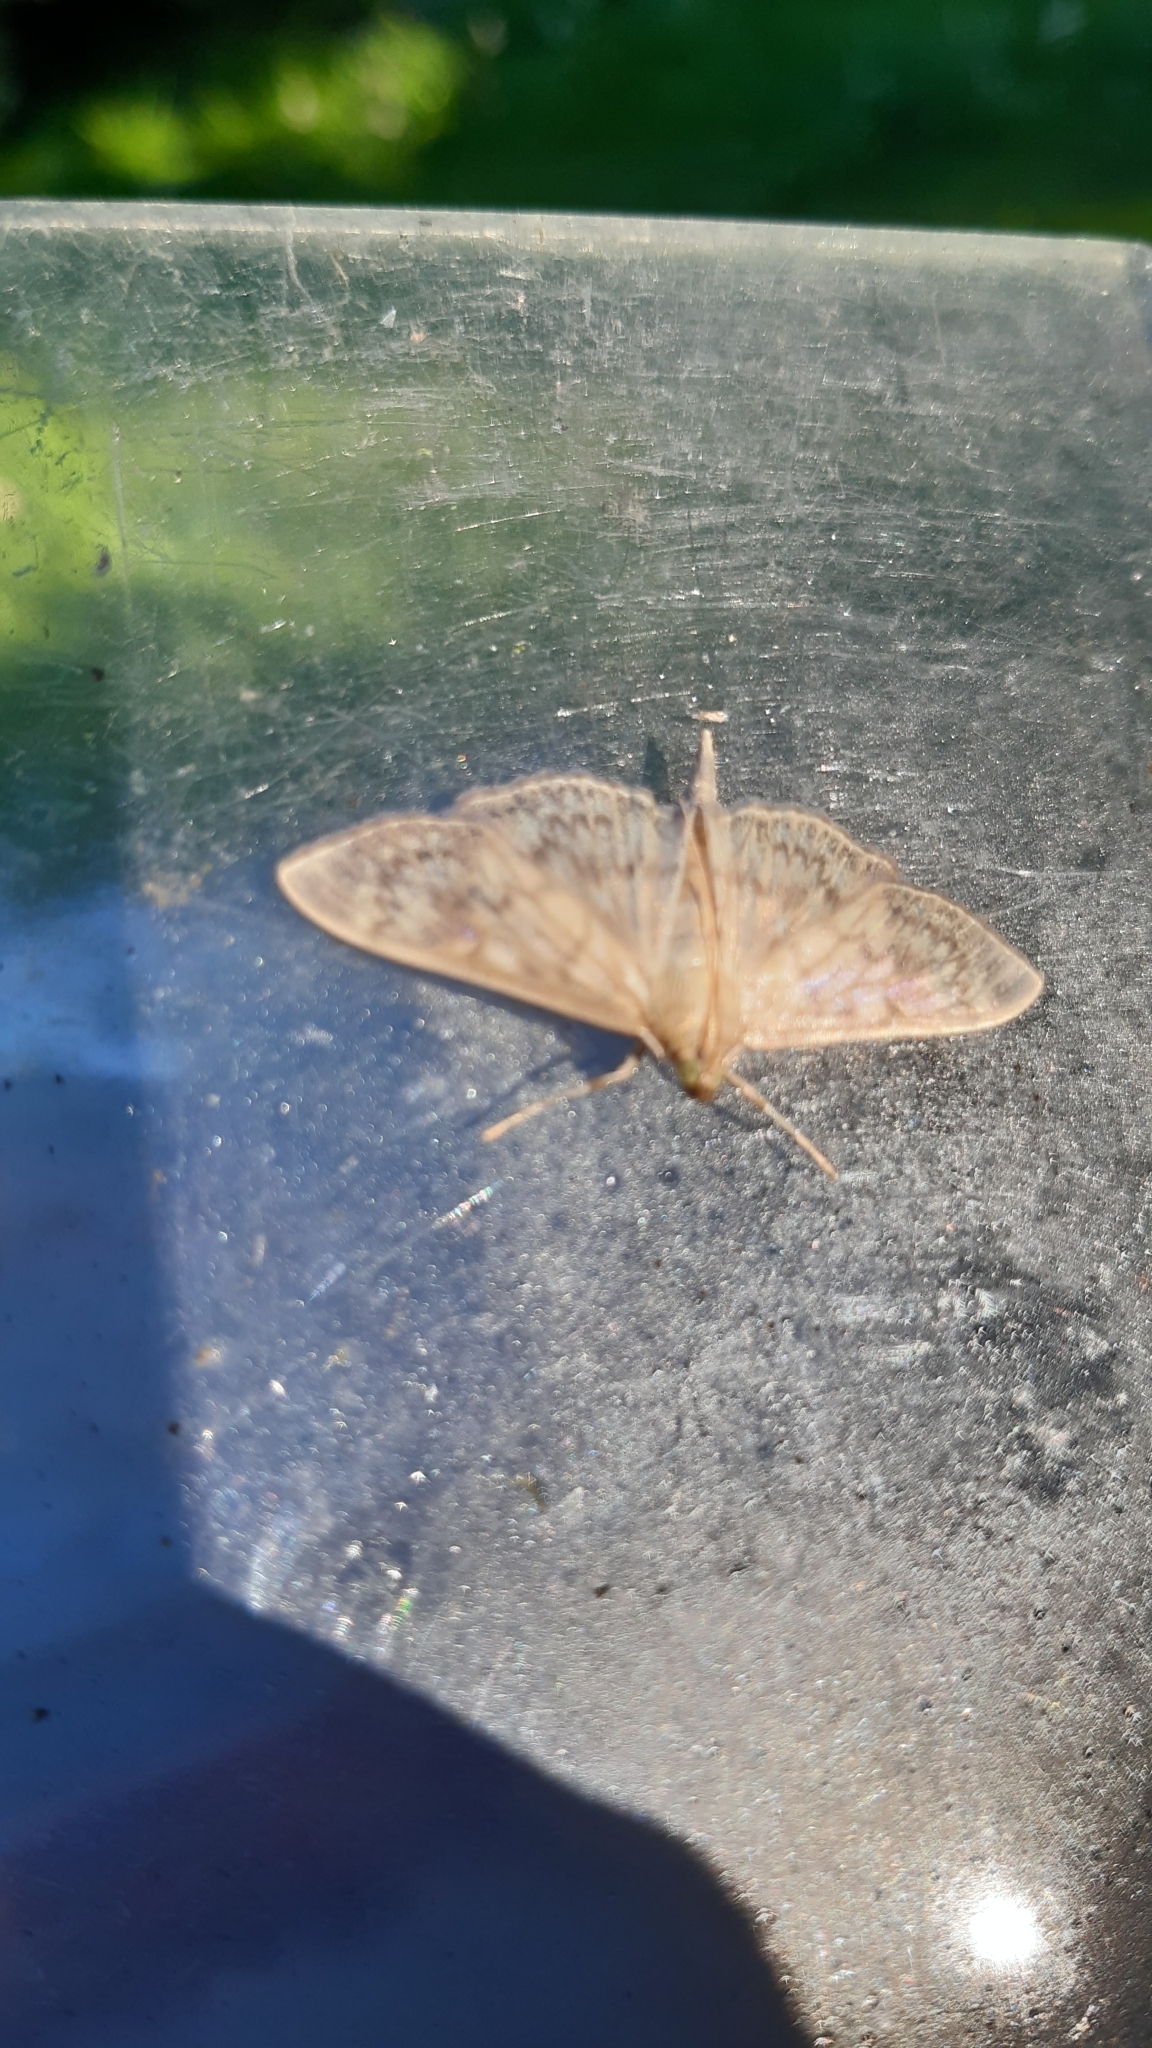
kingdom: Animalia
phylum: Arthropoda
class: Insecta
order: Lepidoptera
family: Crambidae
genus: Patania
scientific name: Patania ruralis
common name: Mother of pearl
